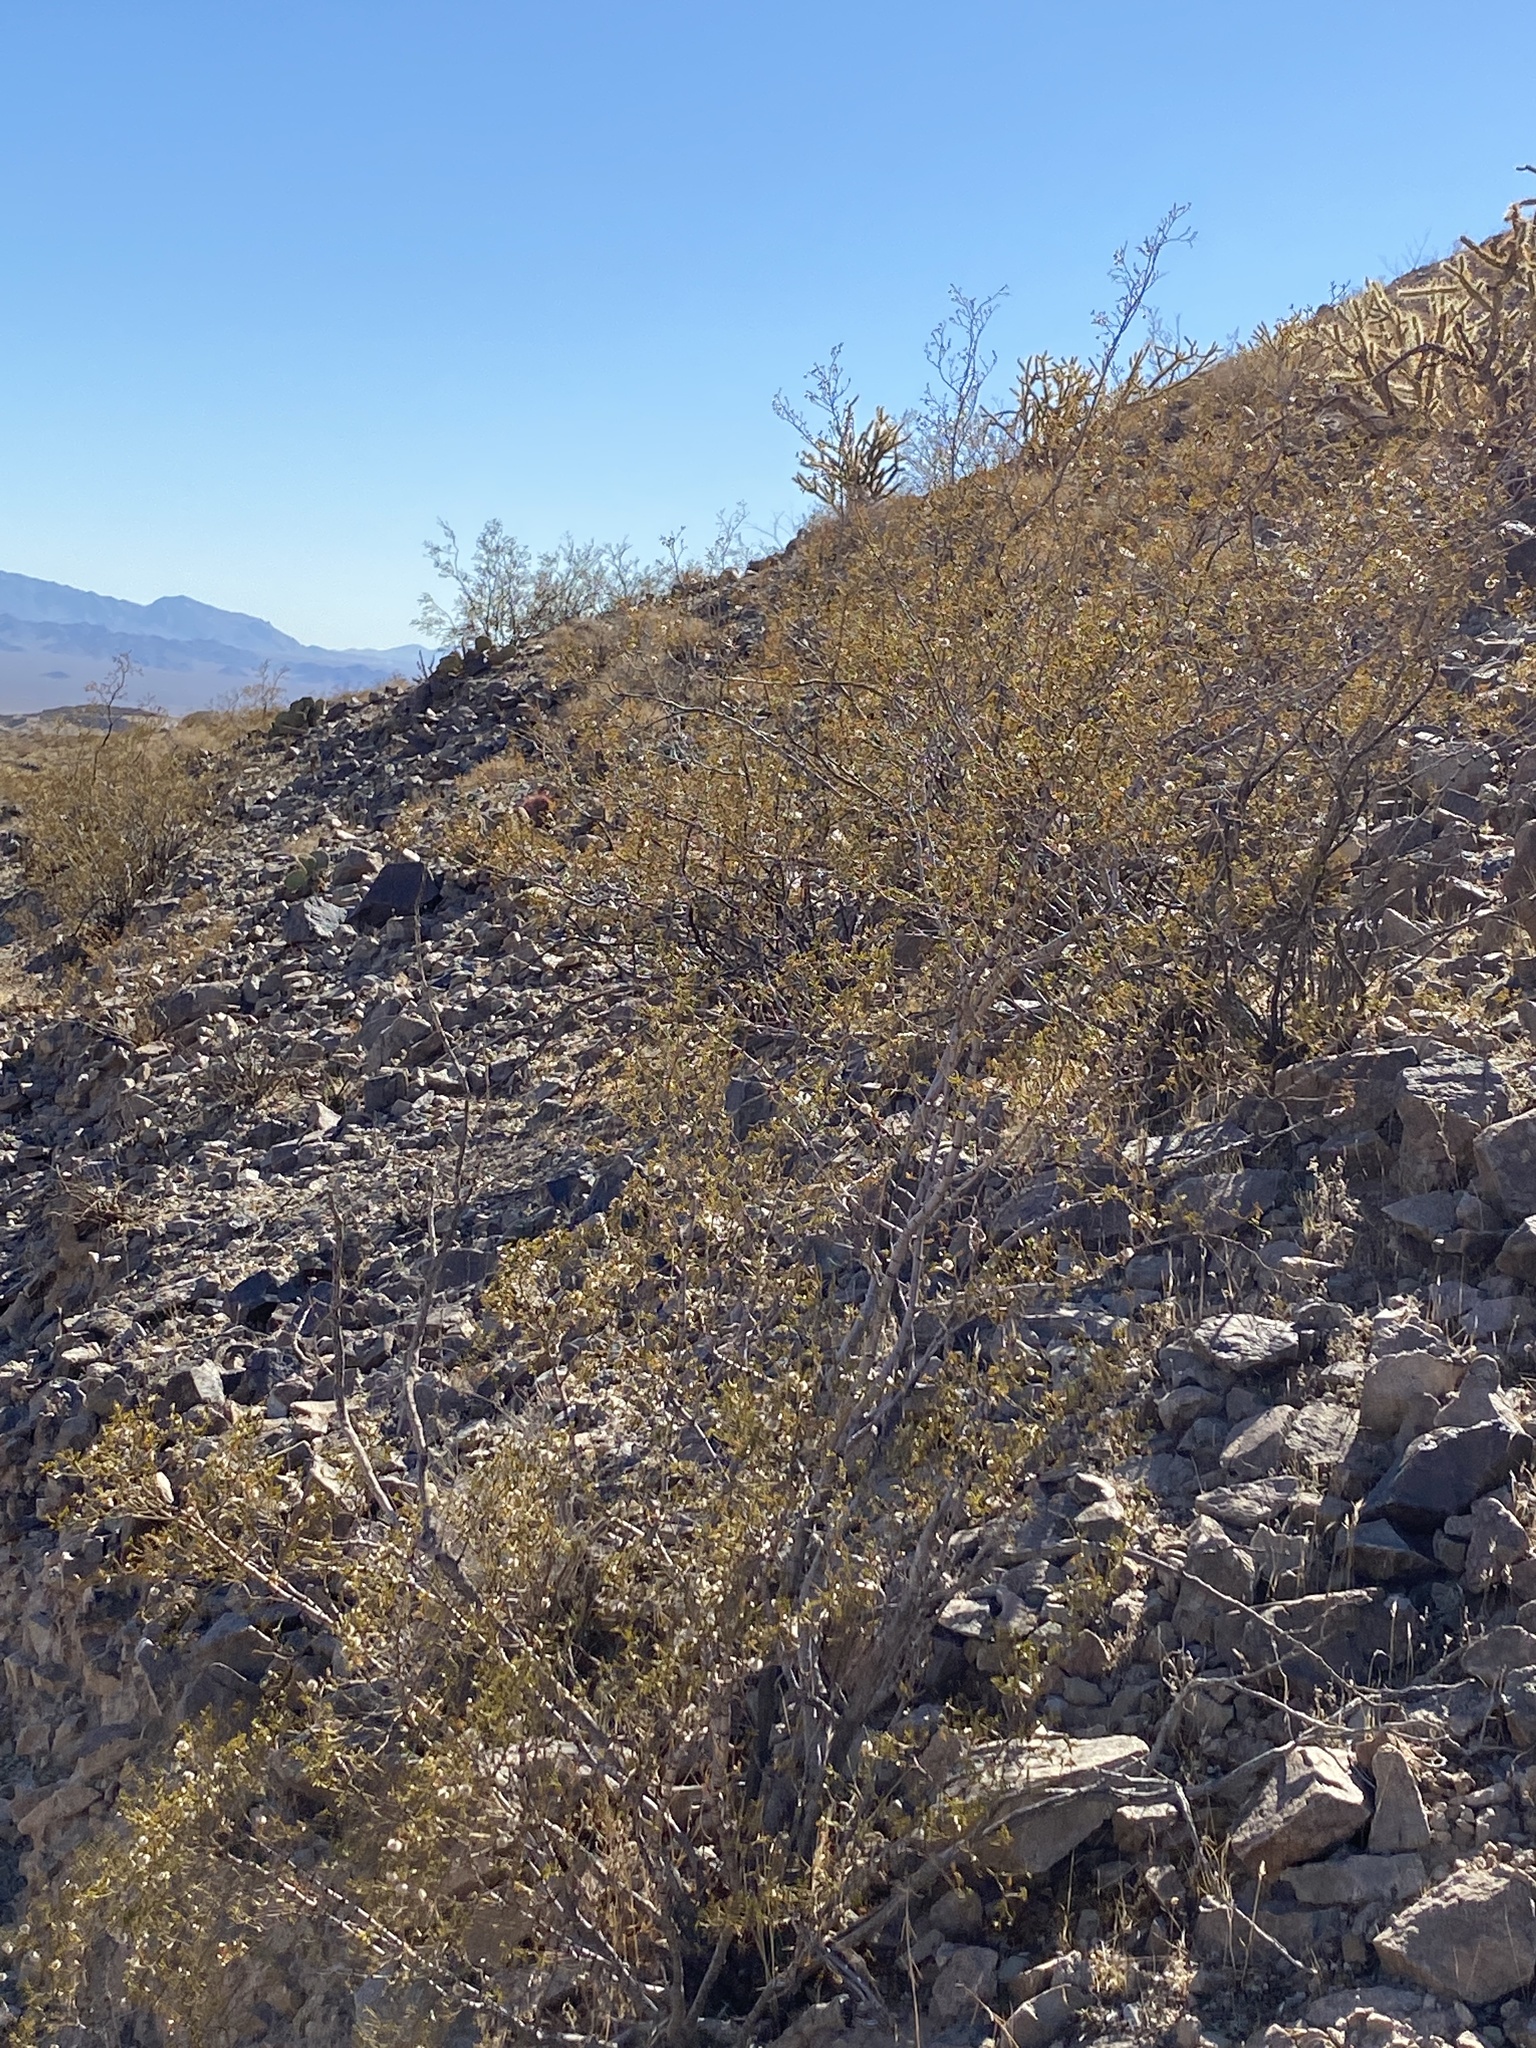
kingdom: Plantae
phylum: Tracheophyta
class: Magnoliopsida
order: Zygophyllales
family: Zygophyllaceae
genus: Larrea
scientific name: Larrea tridentata
